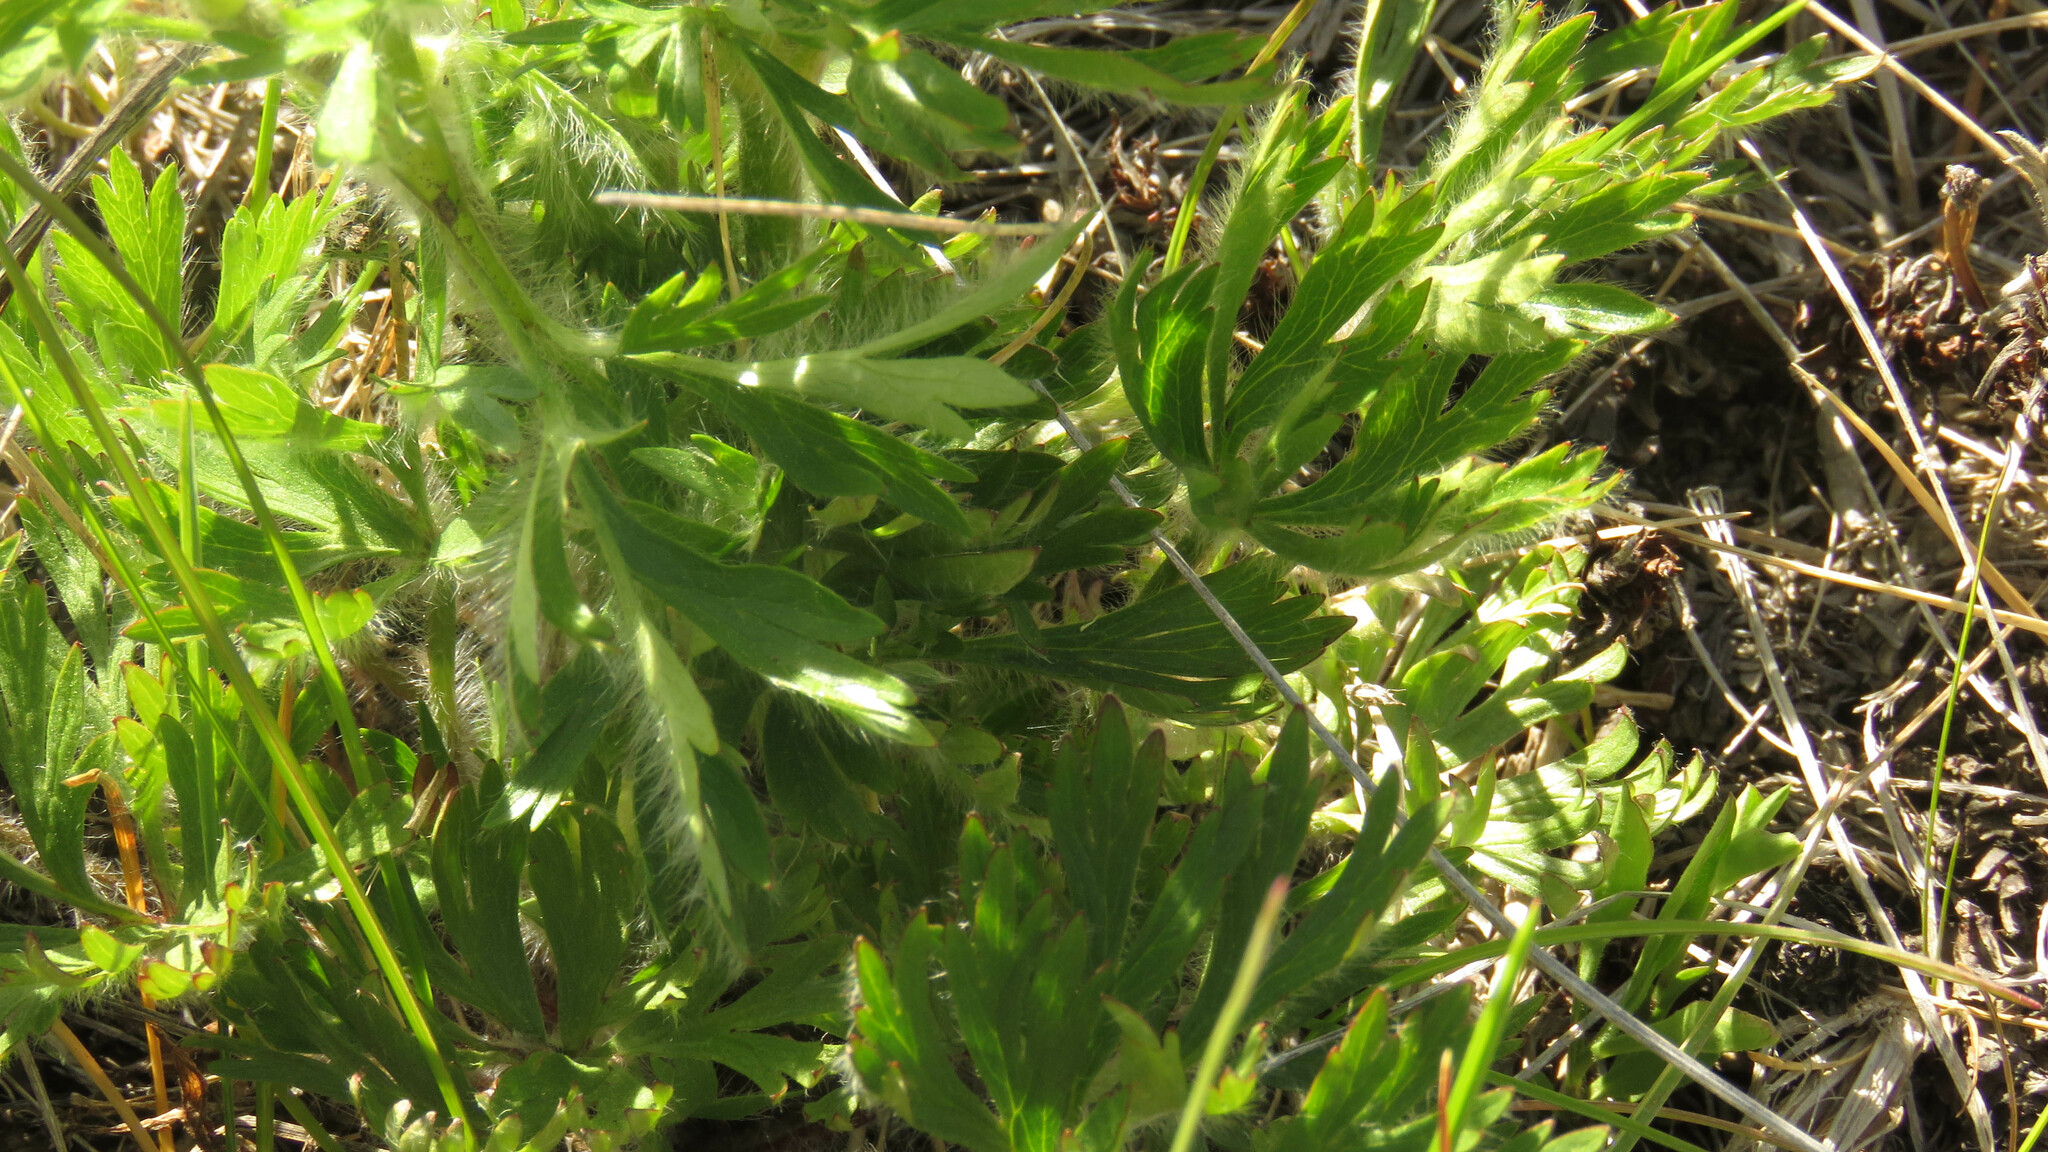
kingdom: Plantae
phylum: Tracheophyta
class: Magnoliopsida
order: Ranunculales
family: Ranunculaceae
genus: Anemone
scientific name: Anemone multifida
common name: Bird's-foot anemone
